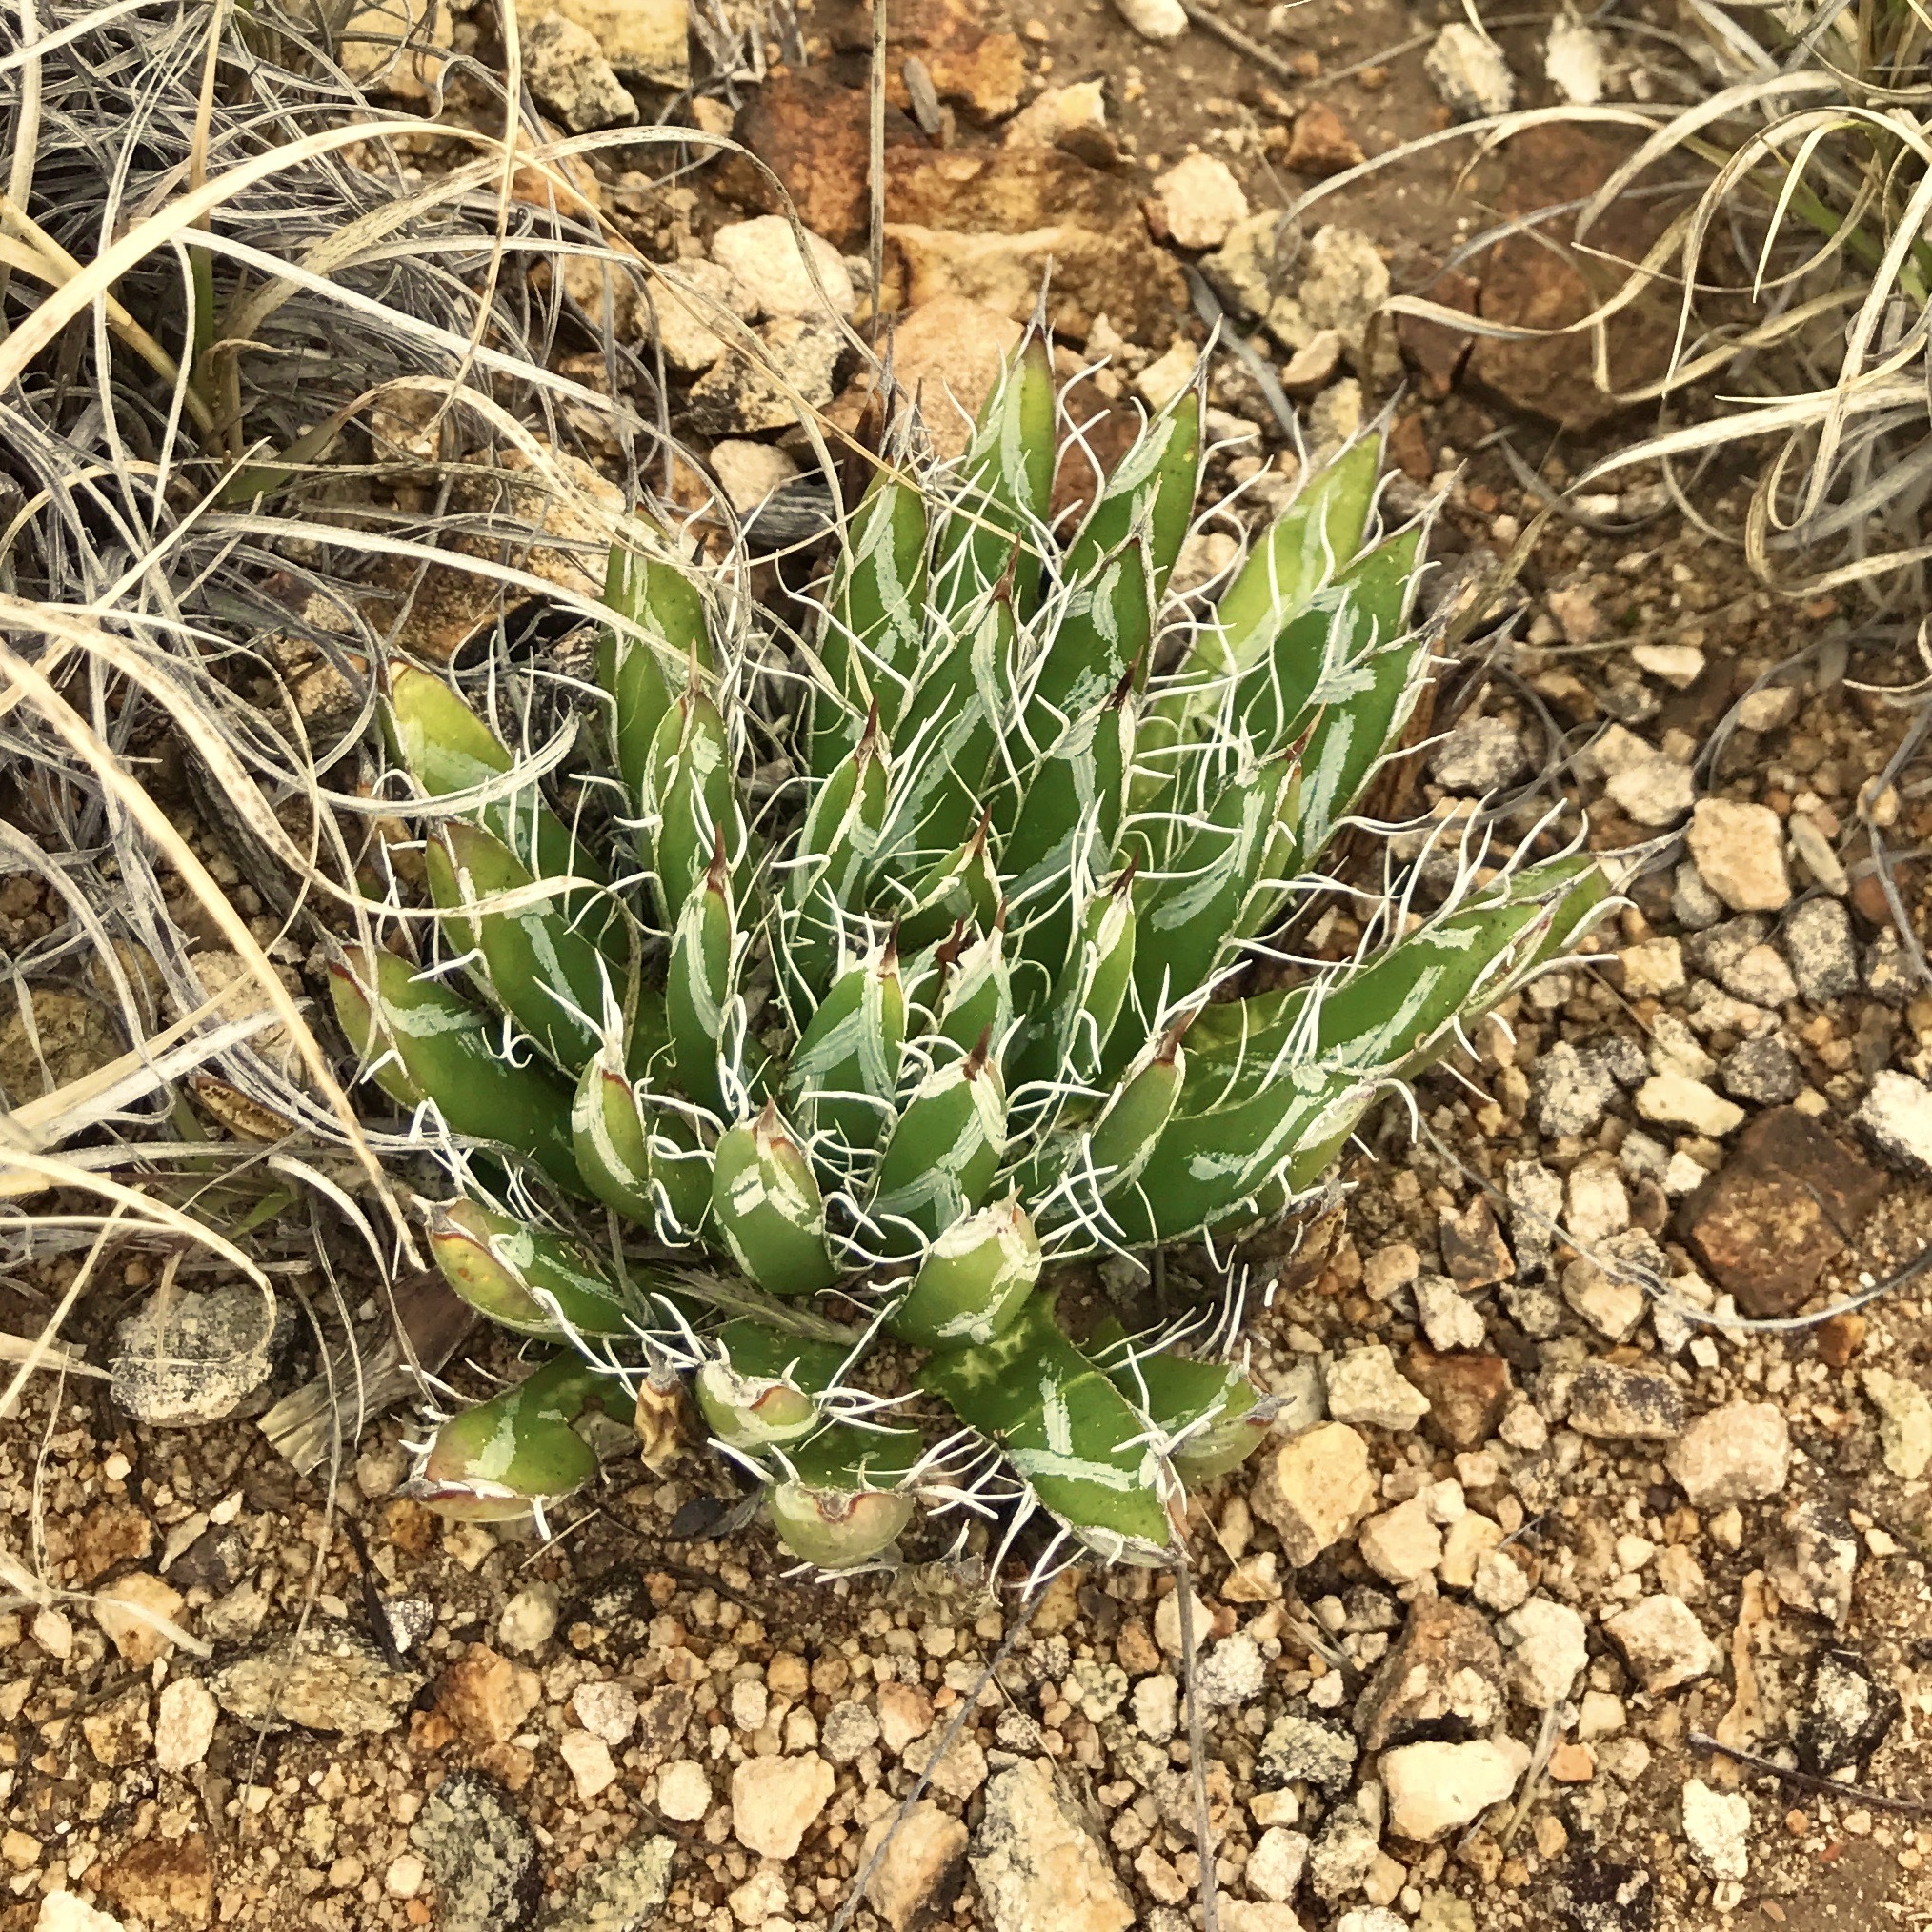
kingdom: Plantae
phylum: Tracheophyta
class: Liliopsida
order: Asparagales
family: Asparagaceae
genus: Agave
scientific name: Agave parviflora
